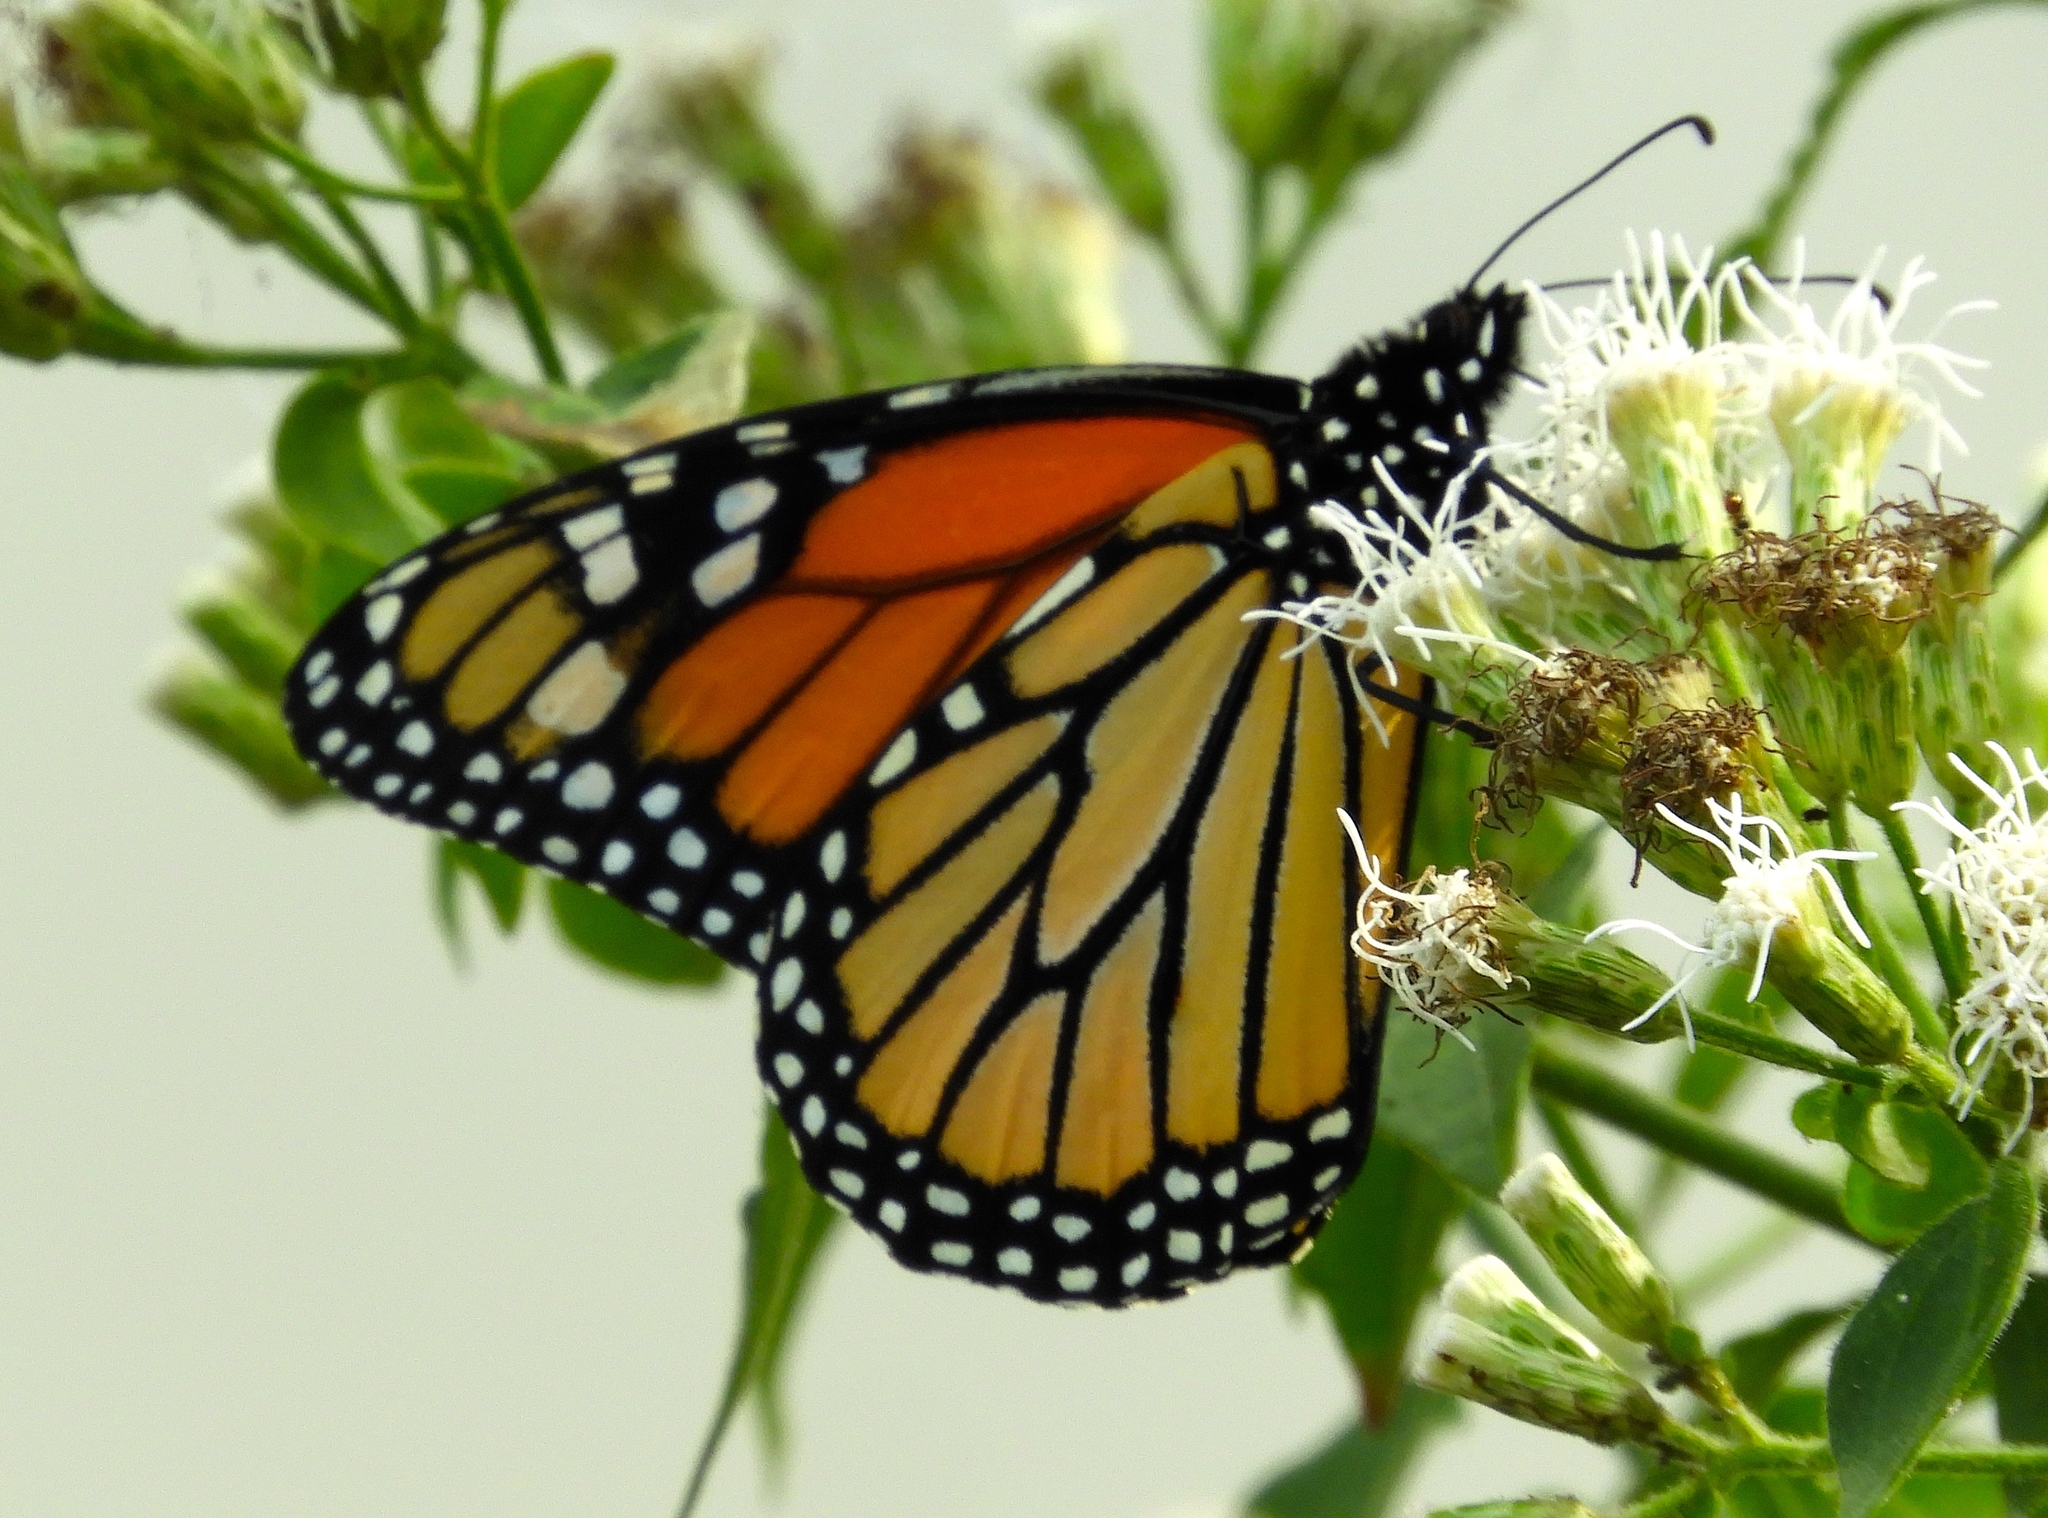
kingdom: Animalia
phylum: Arthropoda
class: Insecta
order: Lepidoptera
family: Nymphalidae
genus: Danaus
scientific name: Danaus plexippus
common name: Monarch
